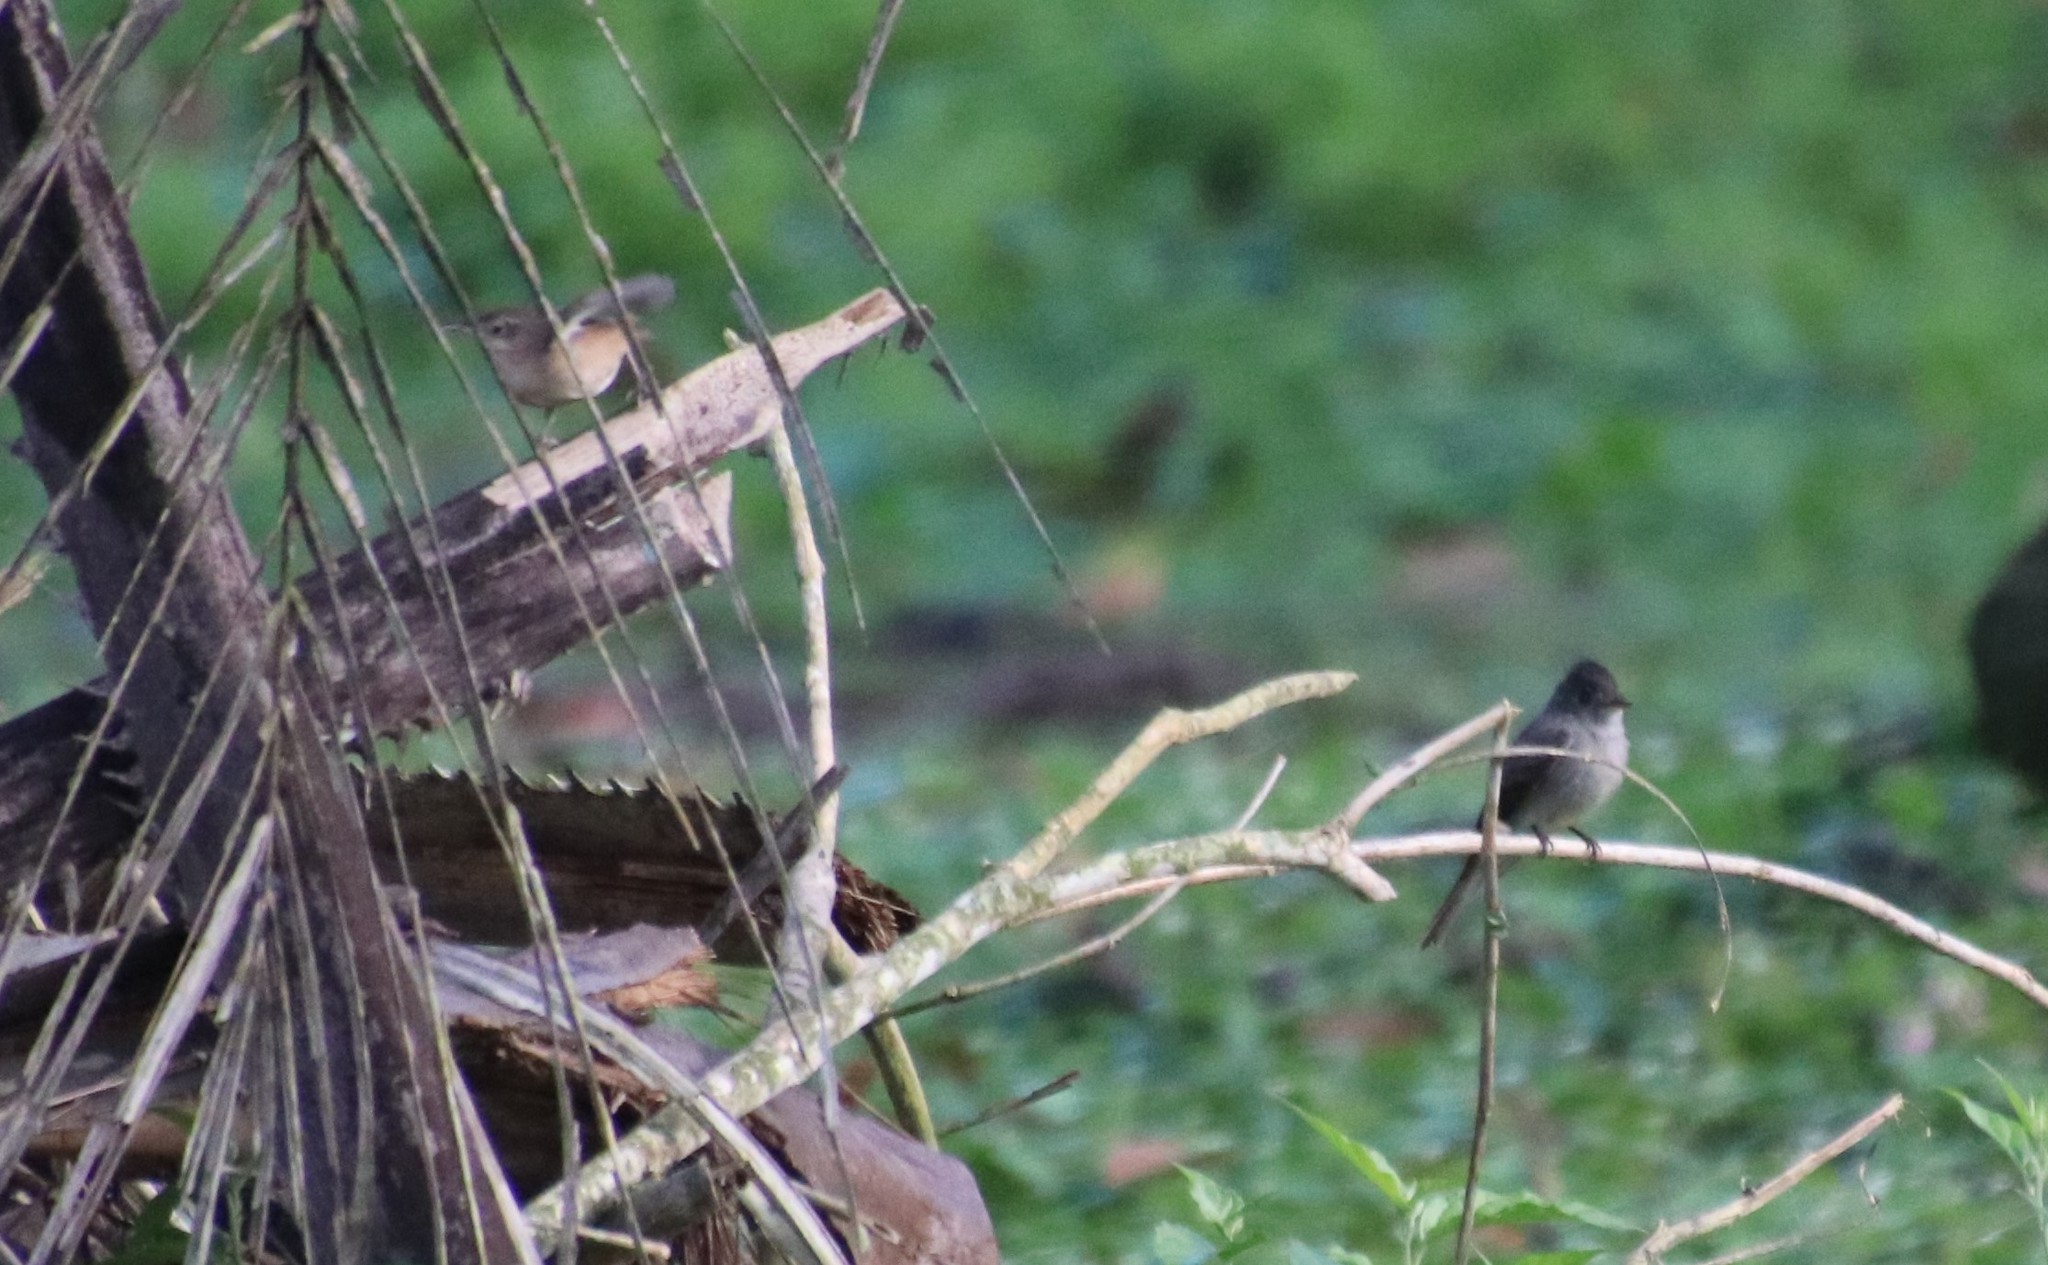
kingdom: Animalia
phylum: Chordata
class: Aves
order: Passeriformes
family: Troglodytidae
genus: Troglodytes
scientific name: Troglodytes aedon
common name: House wren
